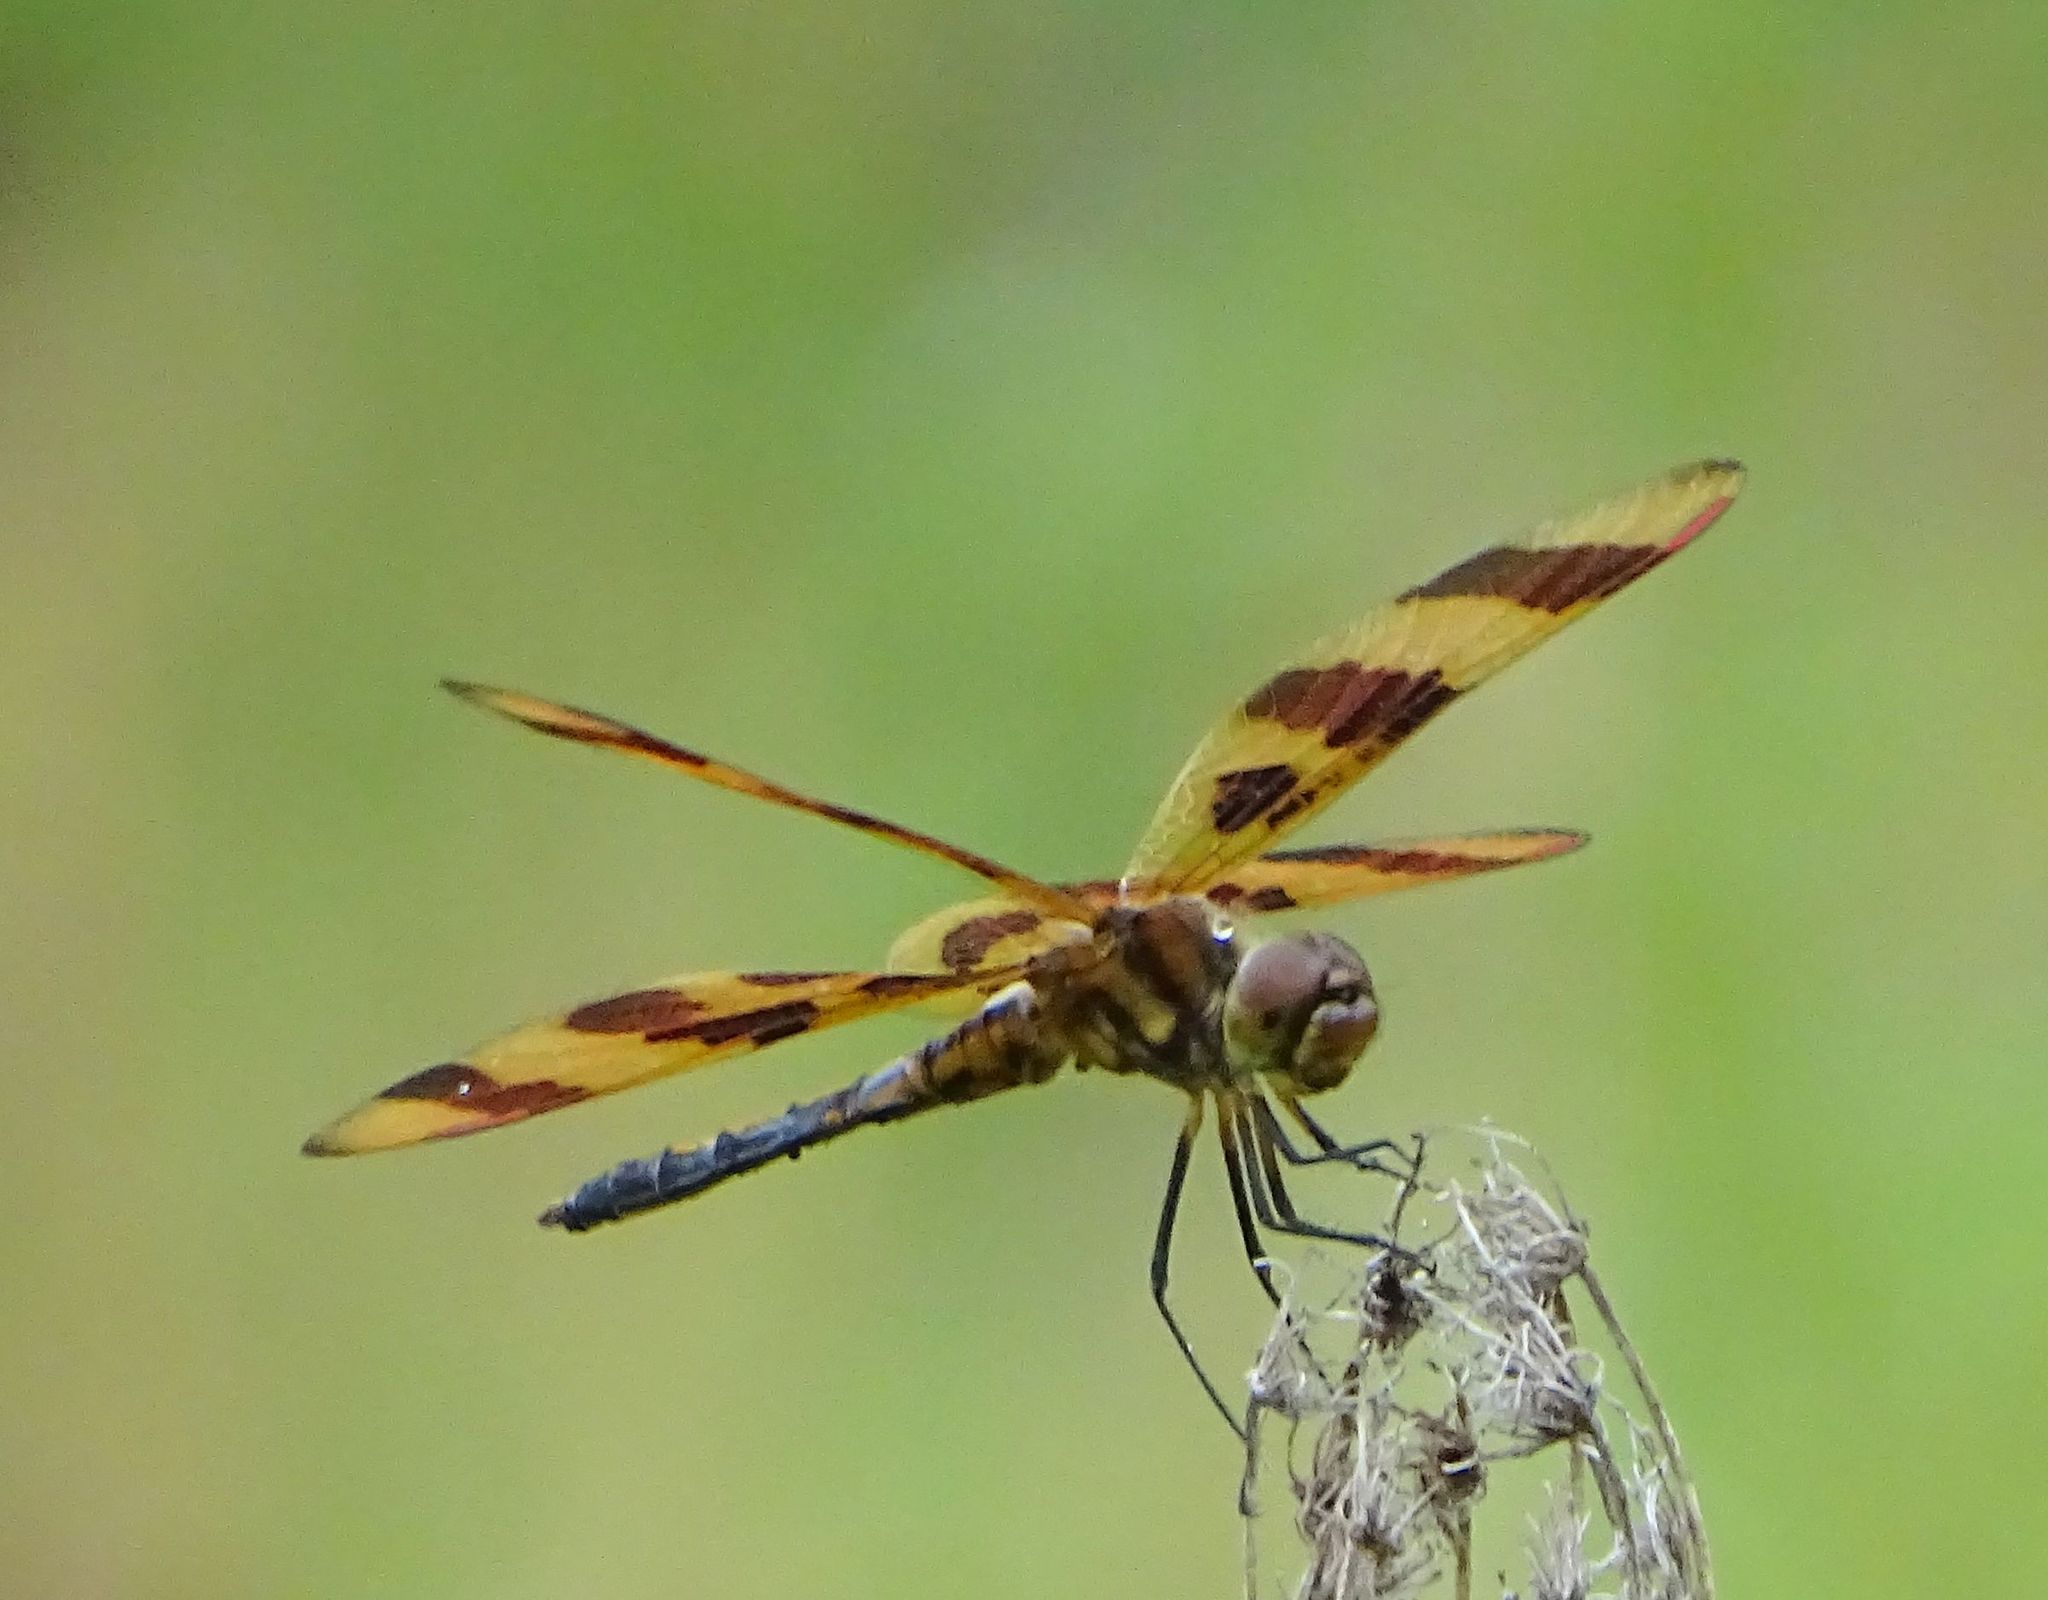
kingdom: Animalia
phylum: Arthropoda
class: Insecta
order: Odonata
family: Libellulidae
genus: Celithemis
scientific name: Celithemis eponina
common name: Halloween pennant
